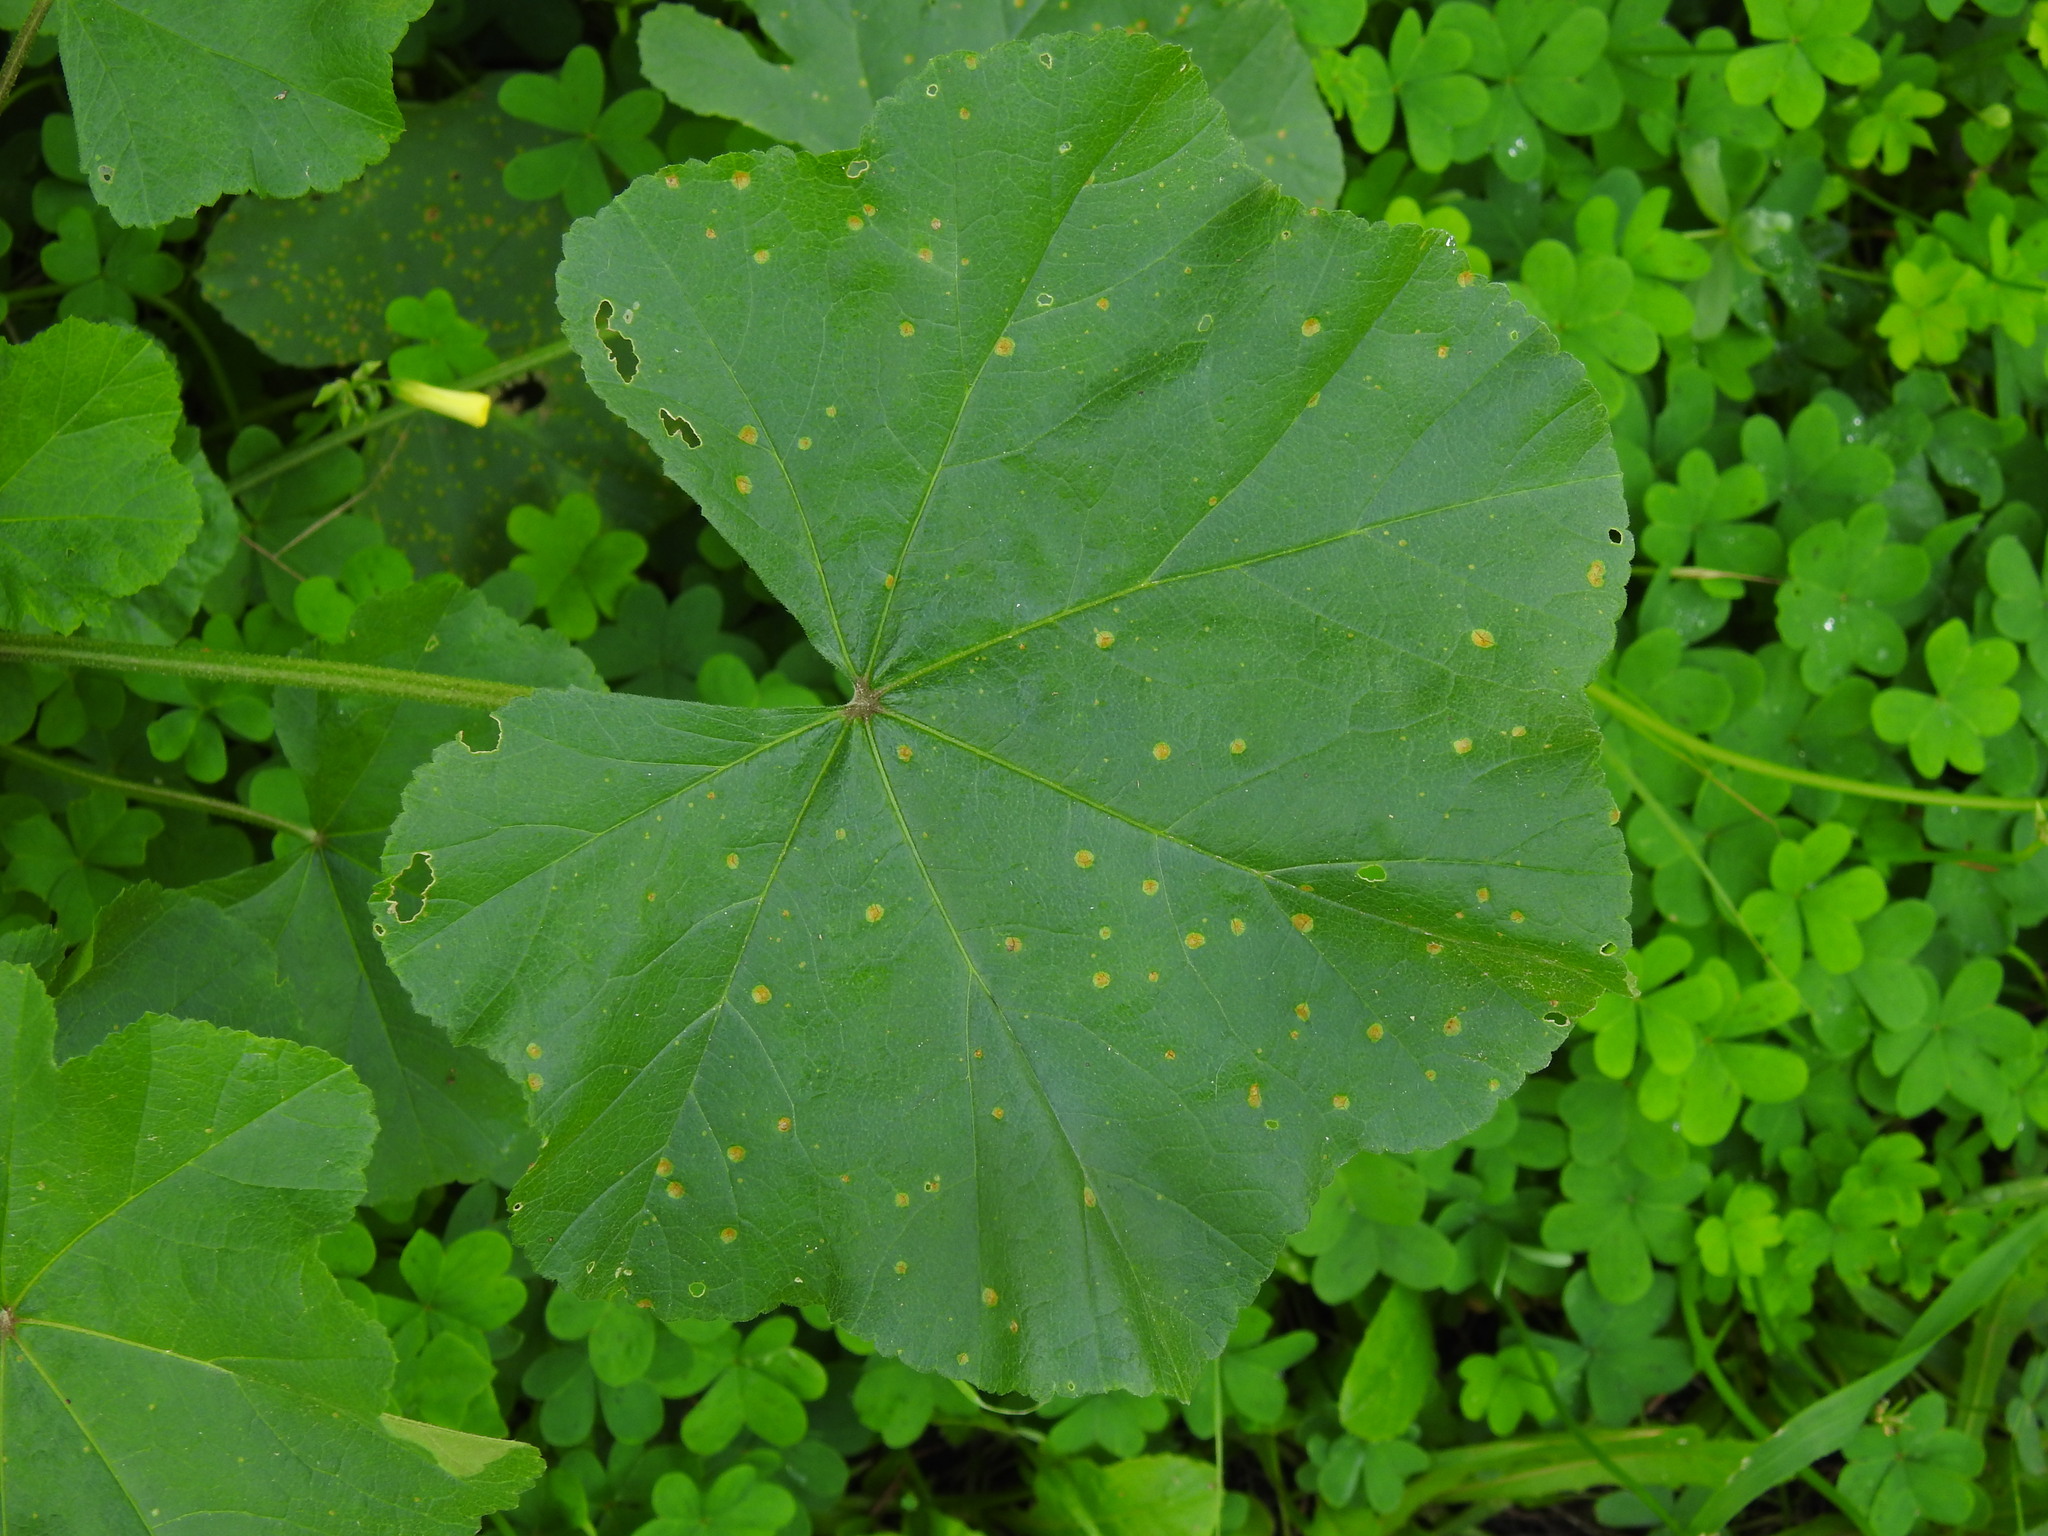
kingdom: Fungi
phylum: Basidiomycota
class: Pucciniomycetes
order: Pucciniales
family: Pucciniaceae
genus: Puccinia
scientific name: Puccinia malvacearum
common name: Hollyhock rust
